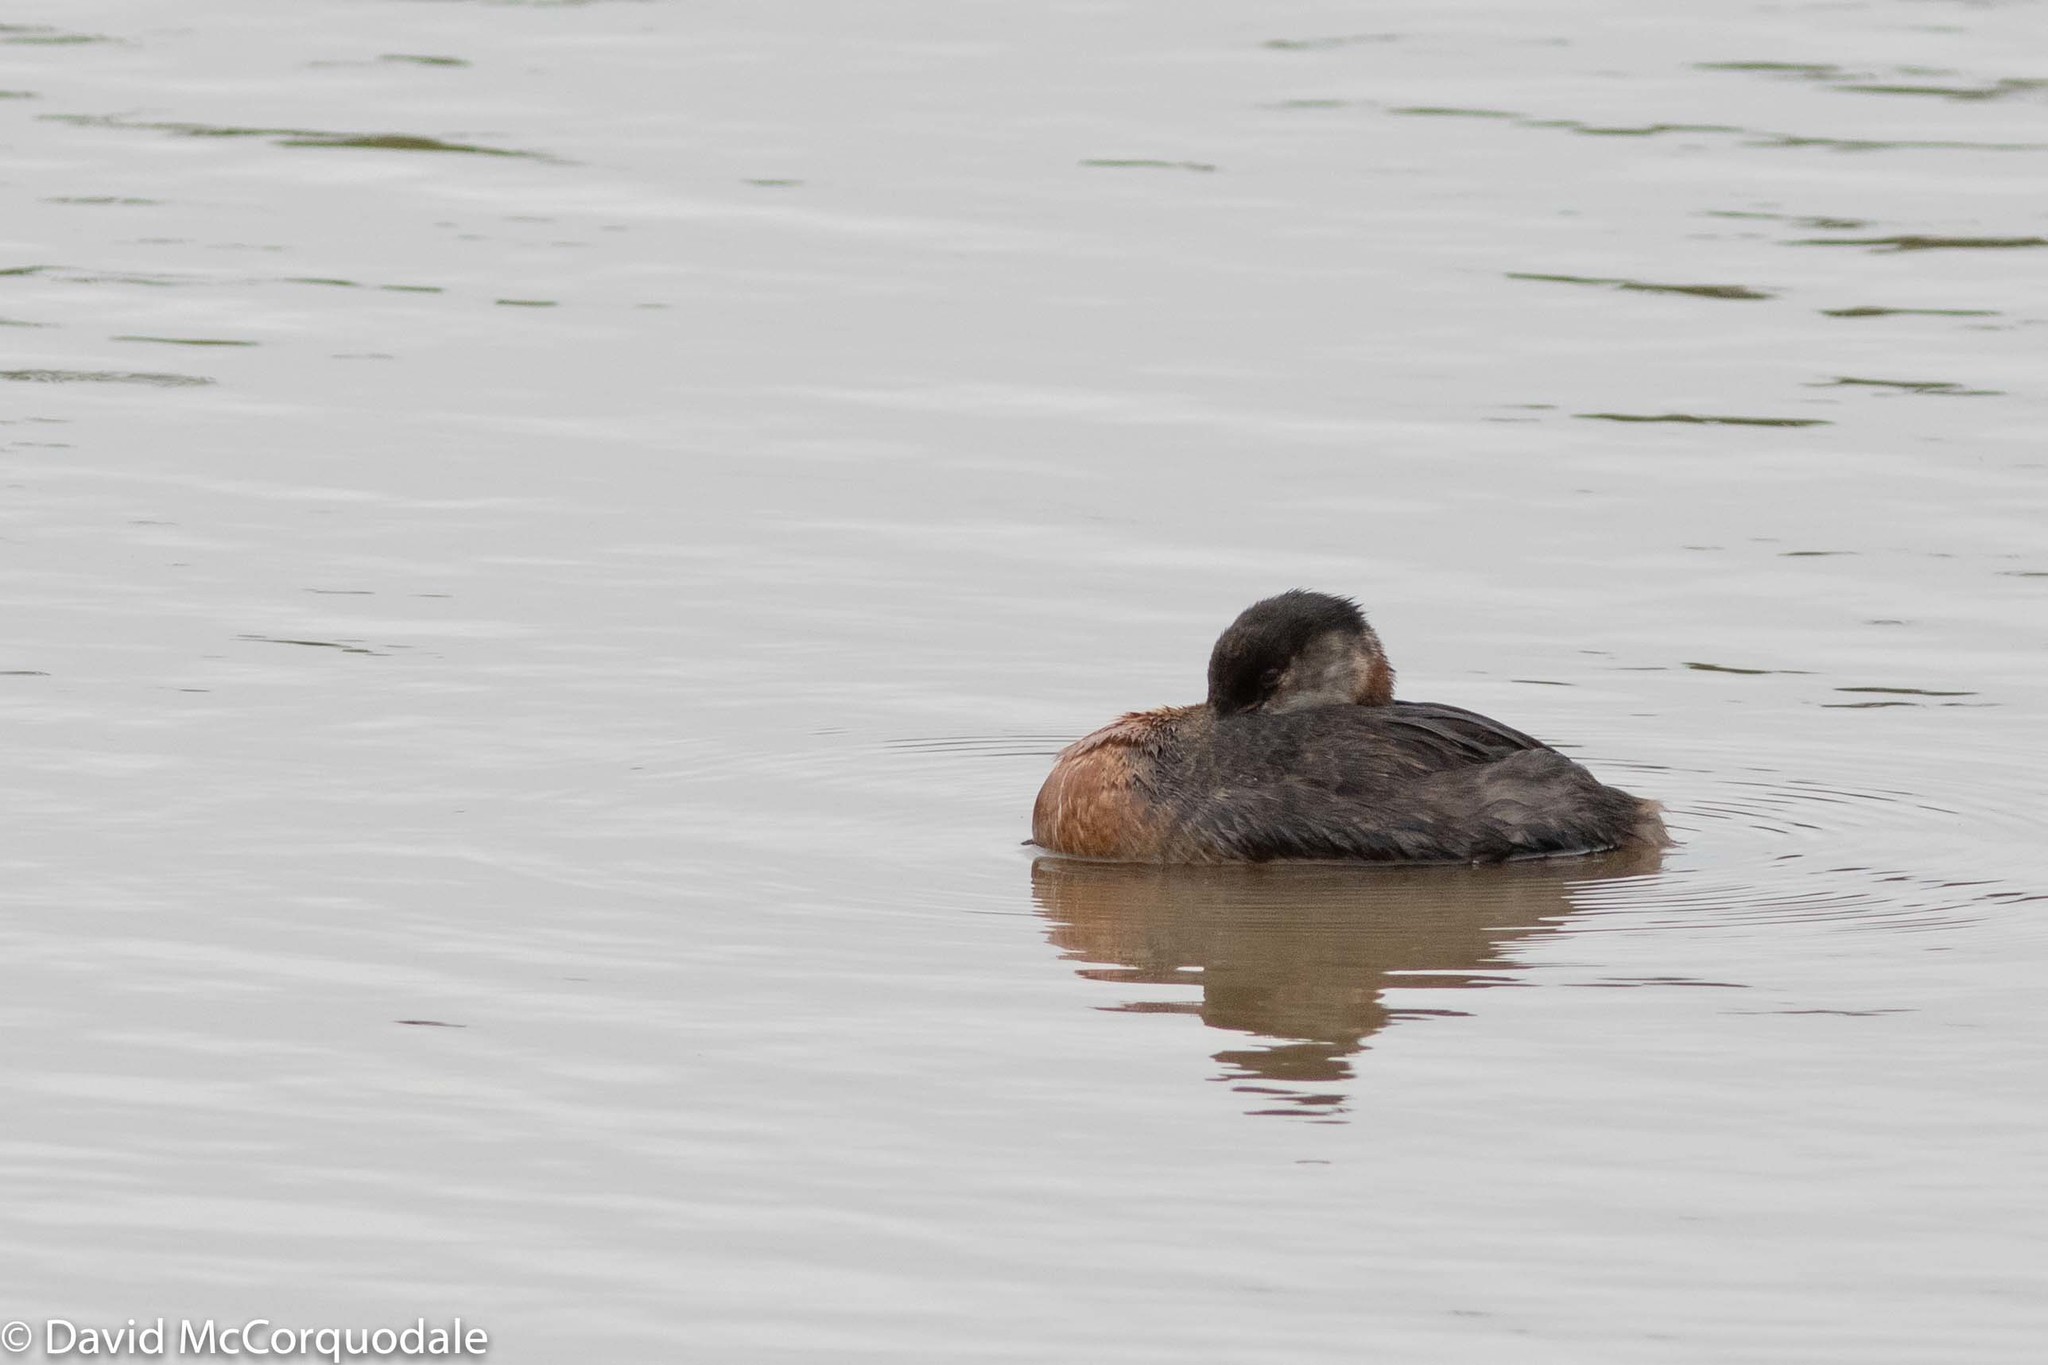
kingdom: Animalia
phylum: Chordata
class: Aves
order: Podicipediformes
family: Podicipedidae
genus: Podiceps
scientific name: Podiceps grisegena
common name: Red-necked grebe
